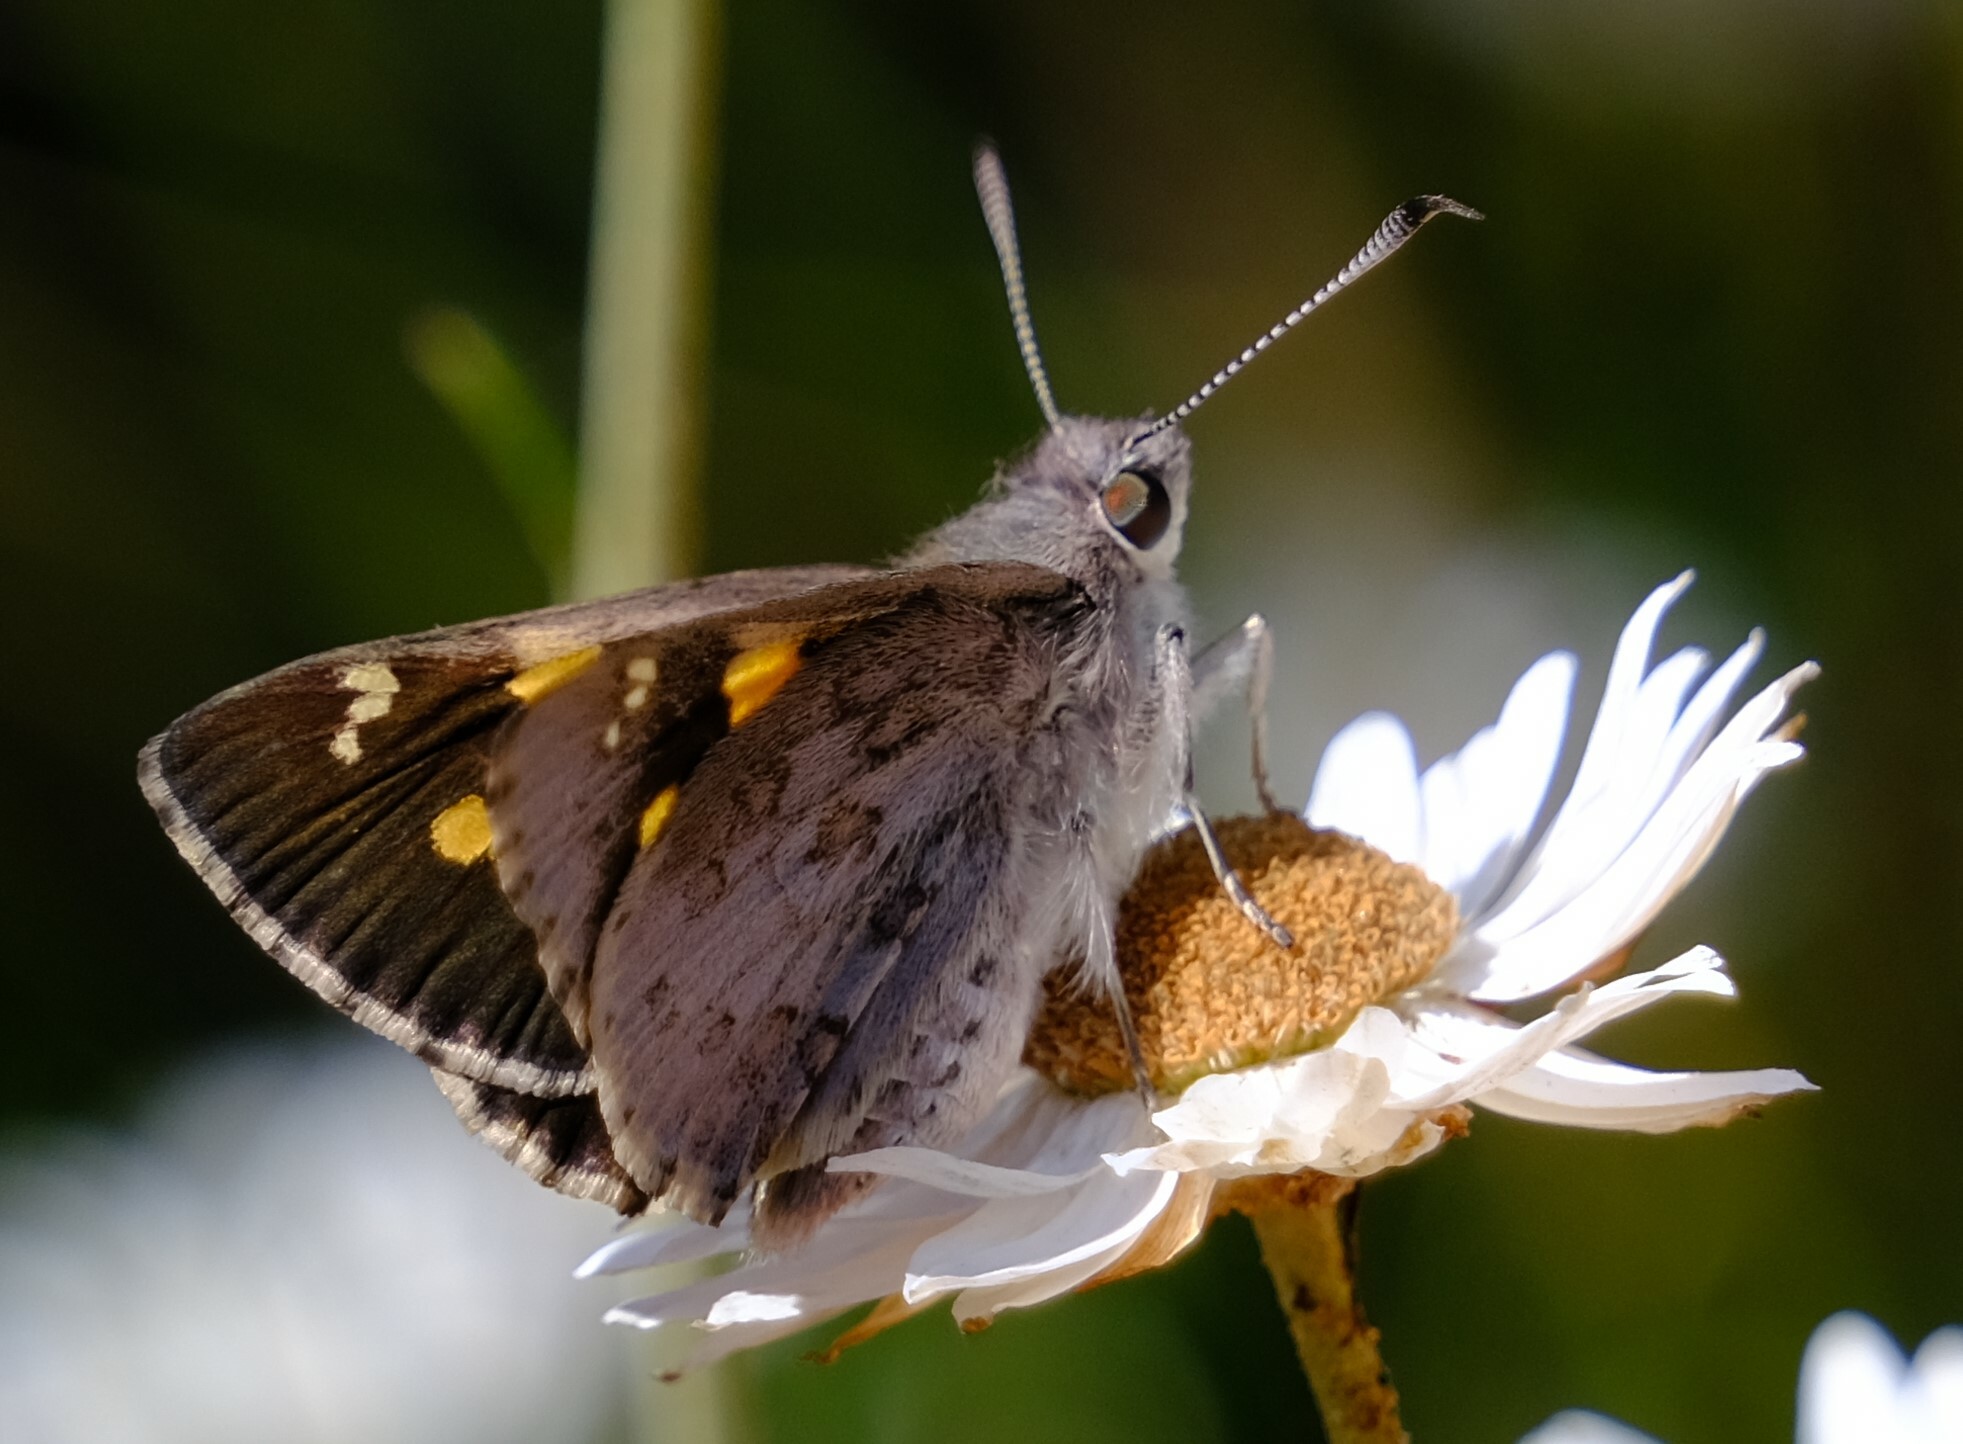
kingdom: Animalia
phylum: Arthropoda
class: Insecta
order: Lepidoptera
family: Hesperiidae
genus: Trapezites
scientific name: Trapezites phigalioides
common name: Montane ochre
